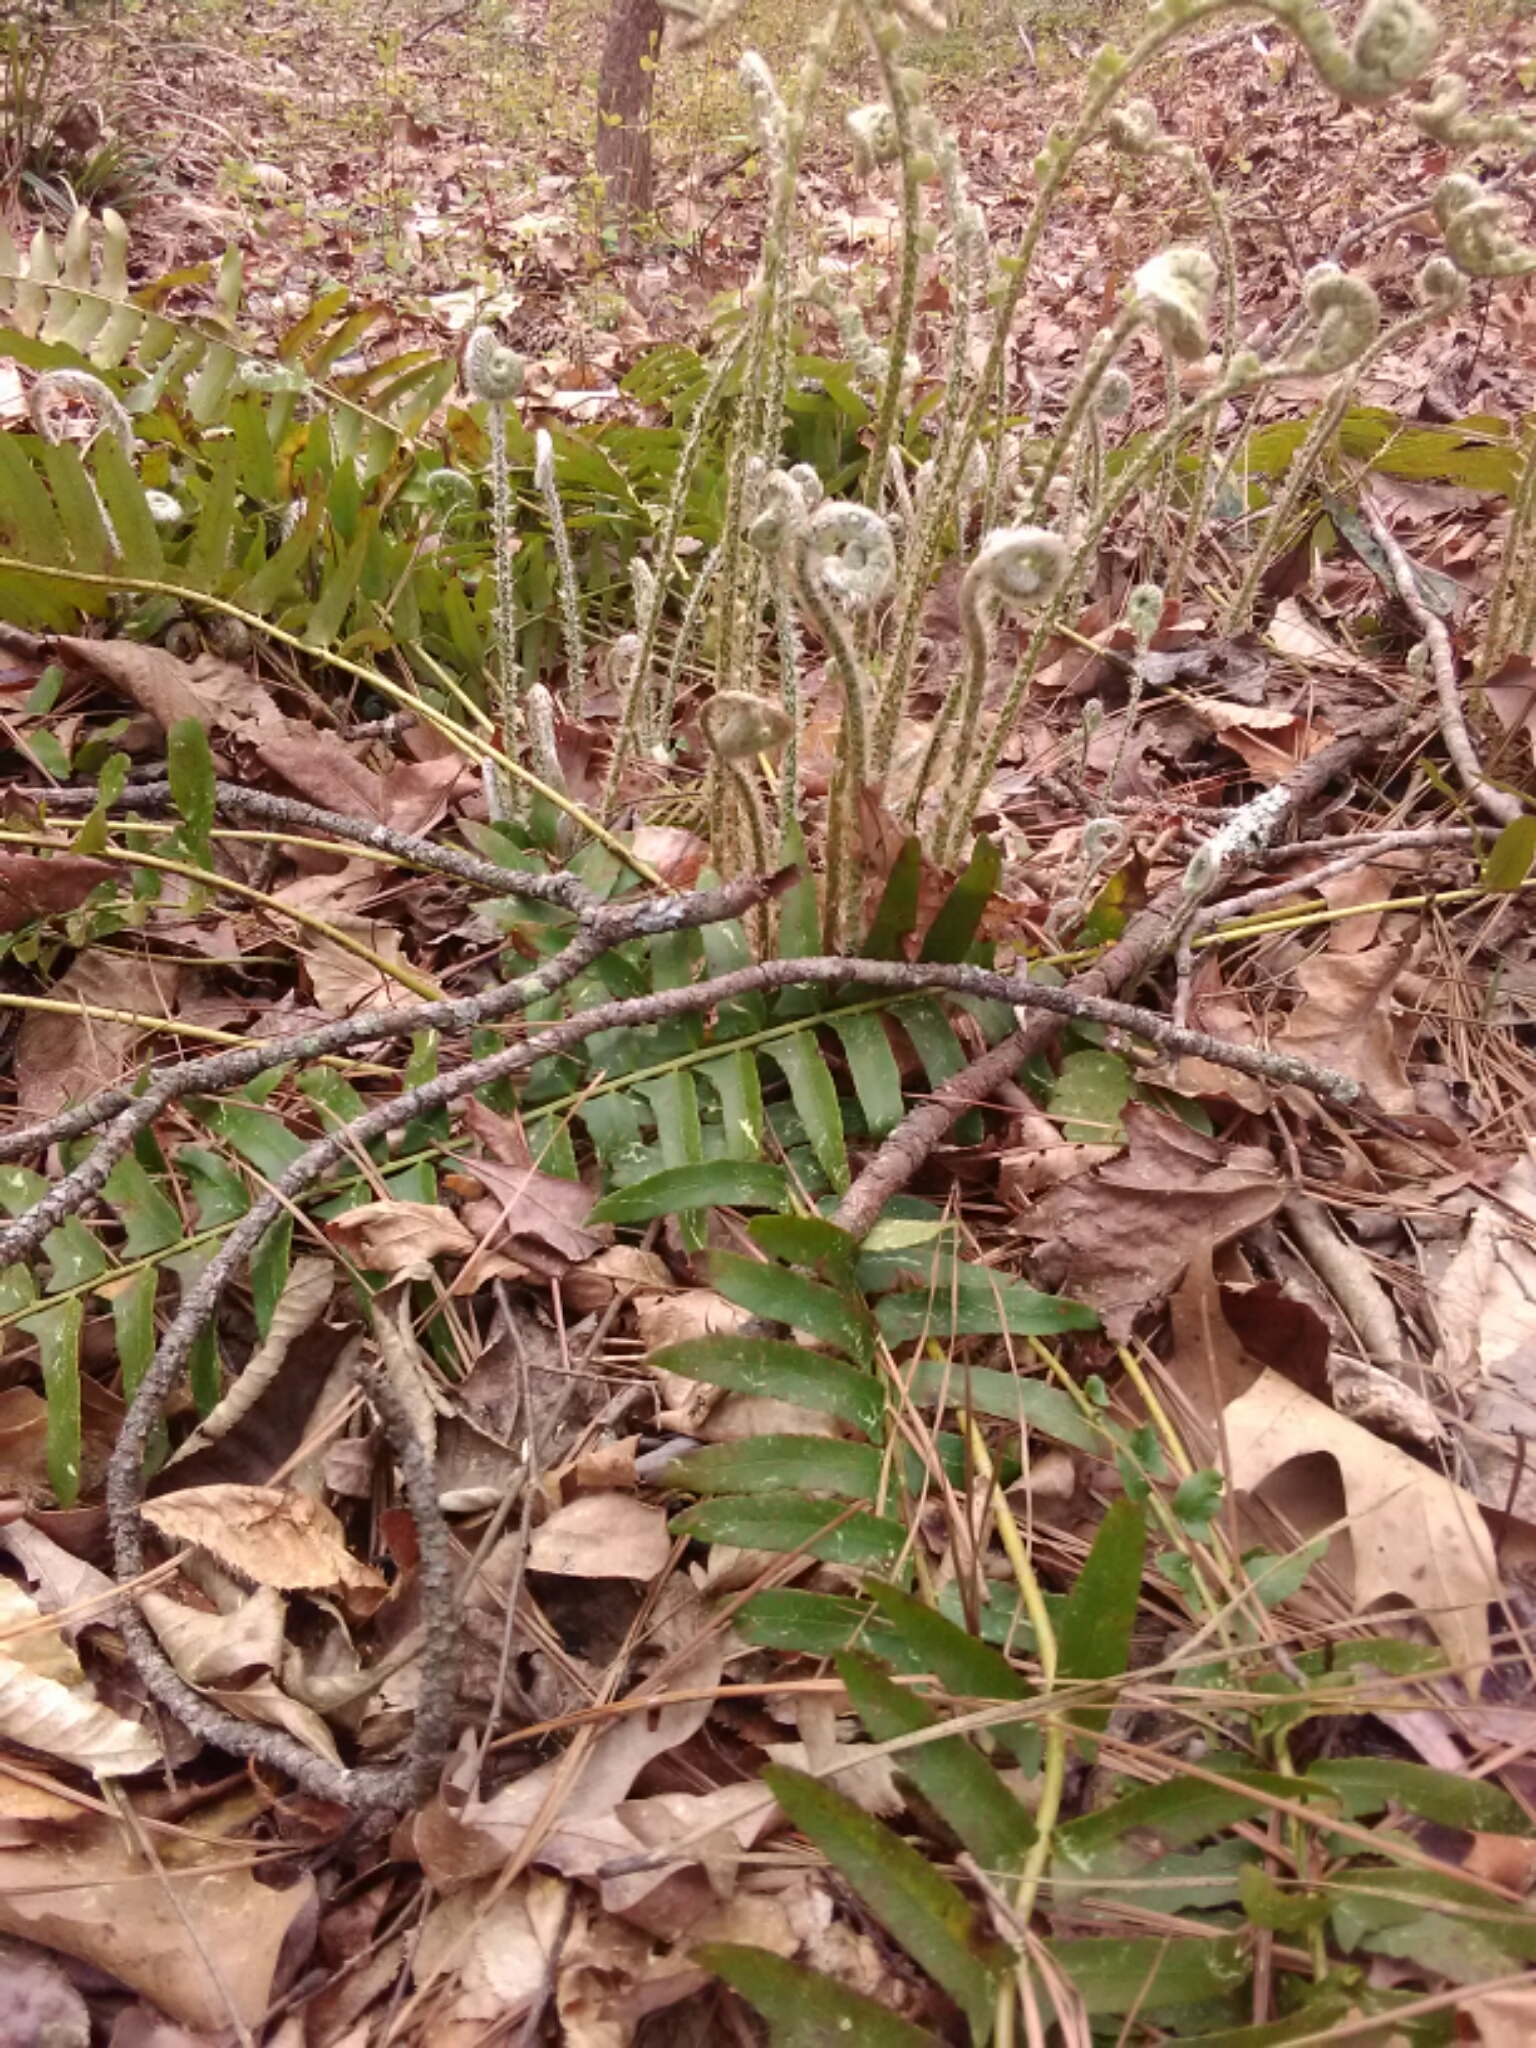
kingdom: Plantae
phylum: Tracheophyta
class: Polypodiopsida
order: Polypodiales
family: Dryopteridaceae
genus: Polystichum
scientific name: Polystichum acrostichoides
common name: Christmas fern
